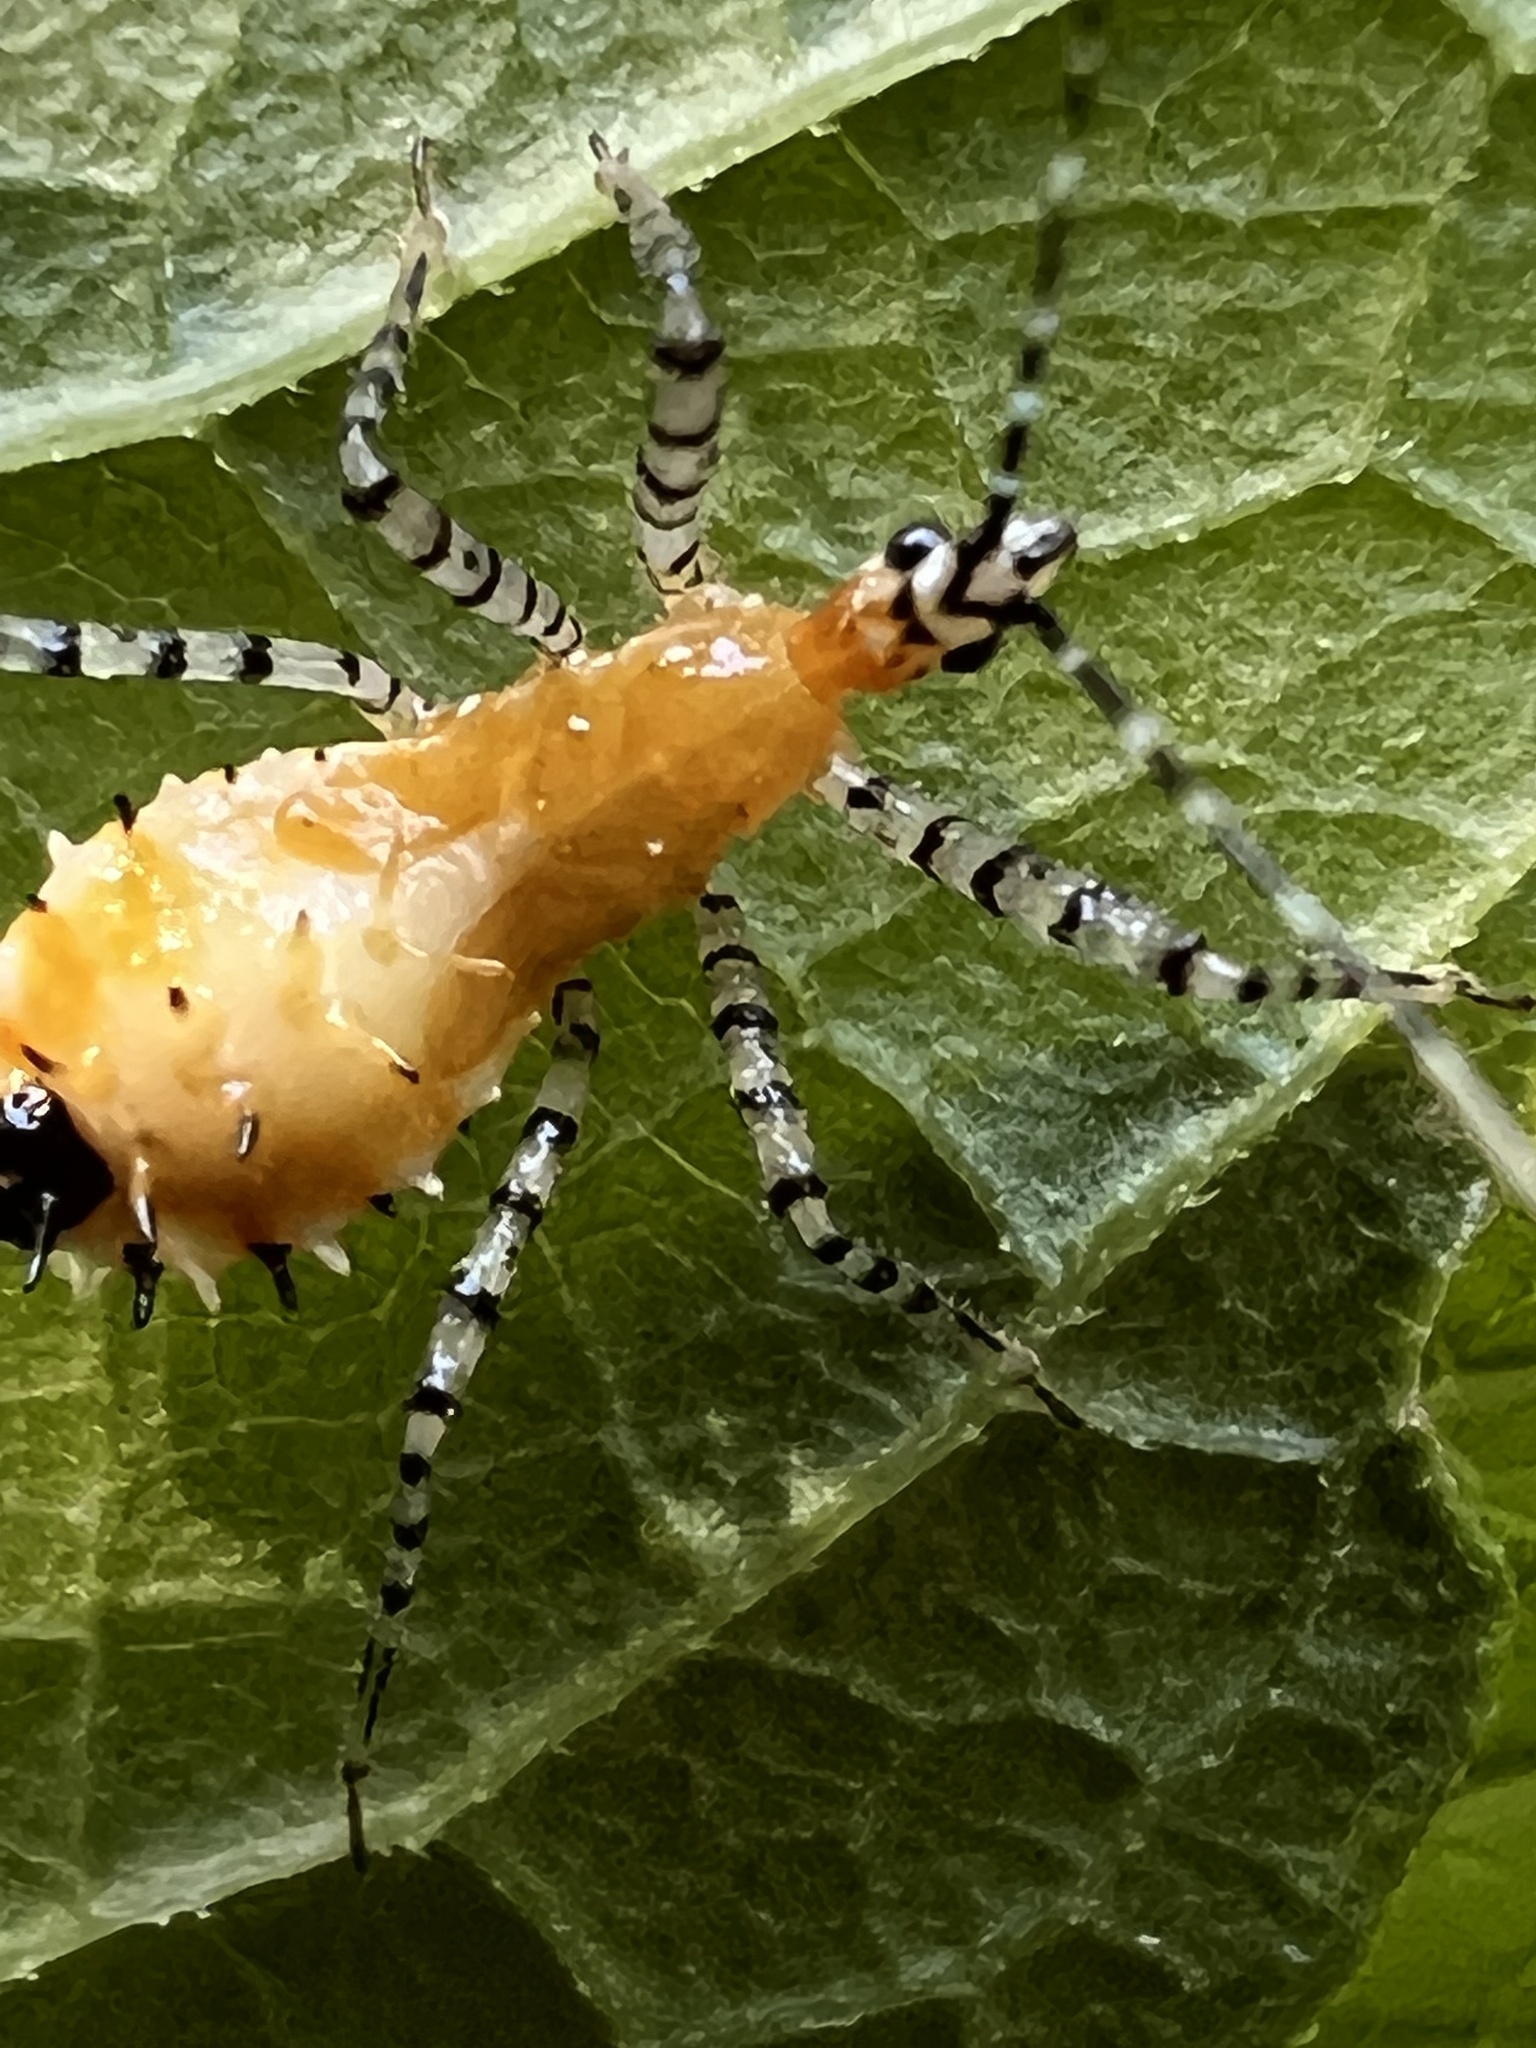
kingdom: Animalia
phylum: Arthropoda
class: Insecta
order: Hemiptera
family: Reduviidae
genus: Pselliopus
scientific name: Pselliopus cinctus
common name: Ringed assassin bug
